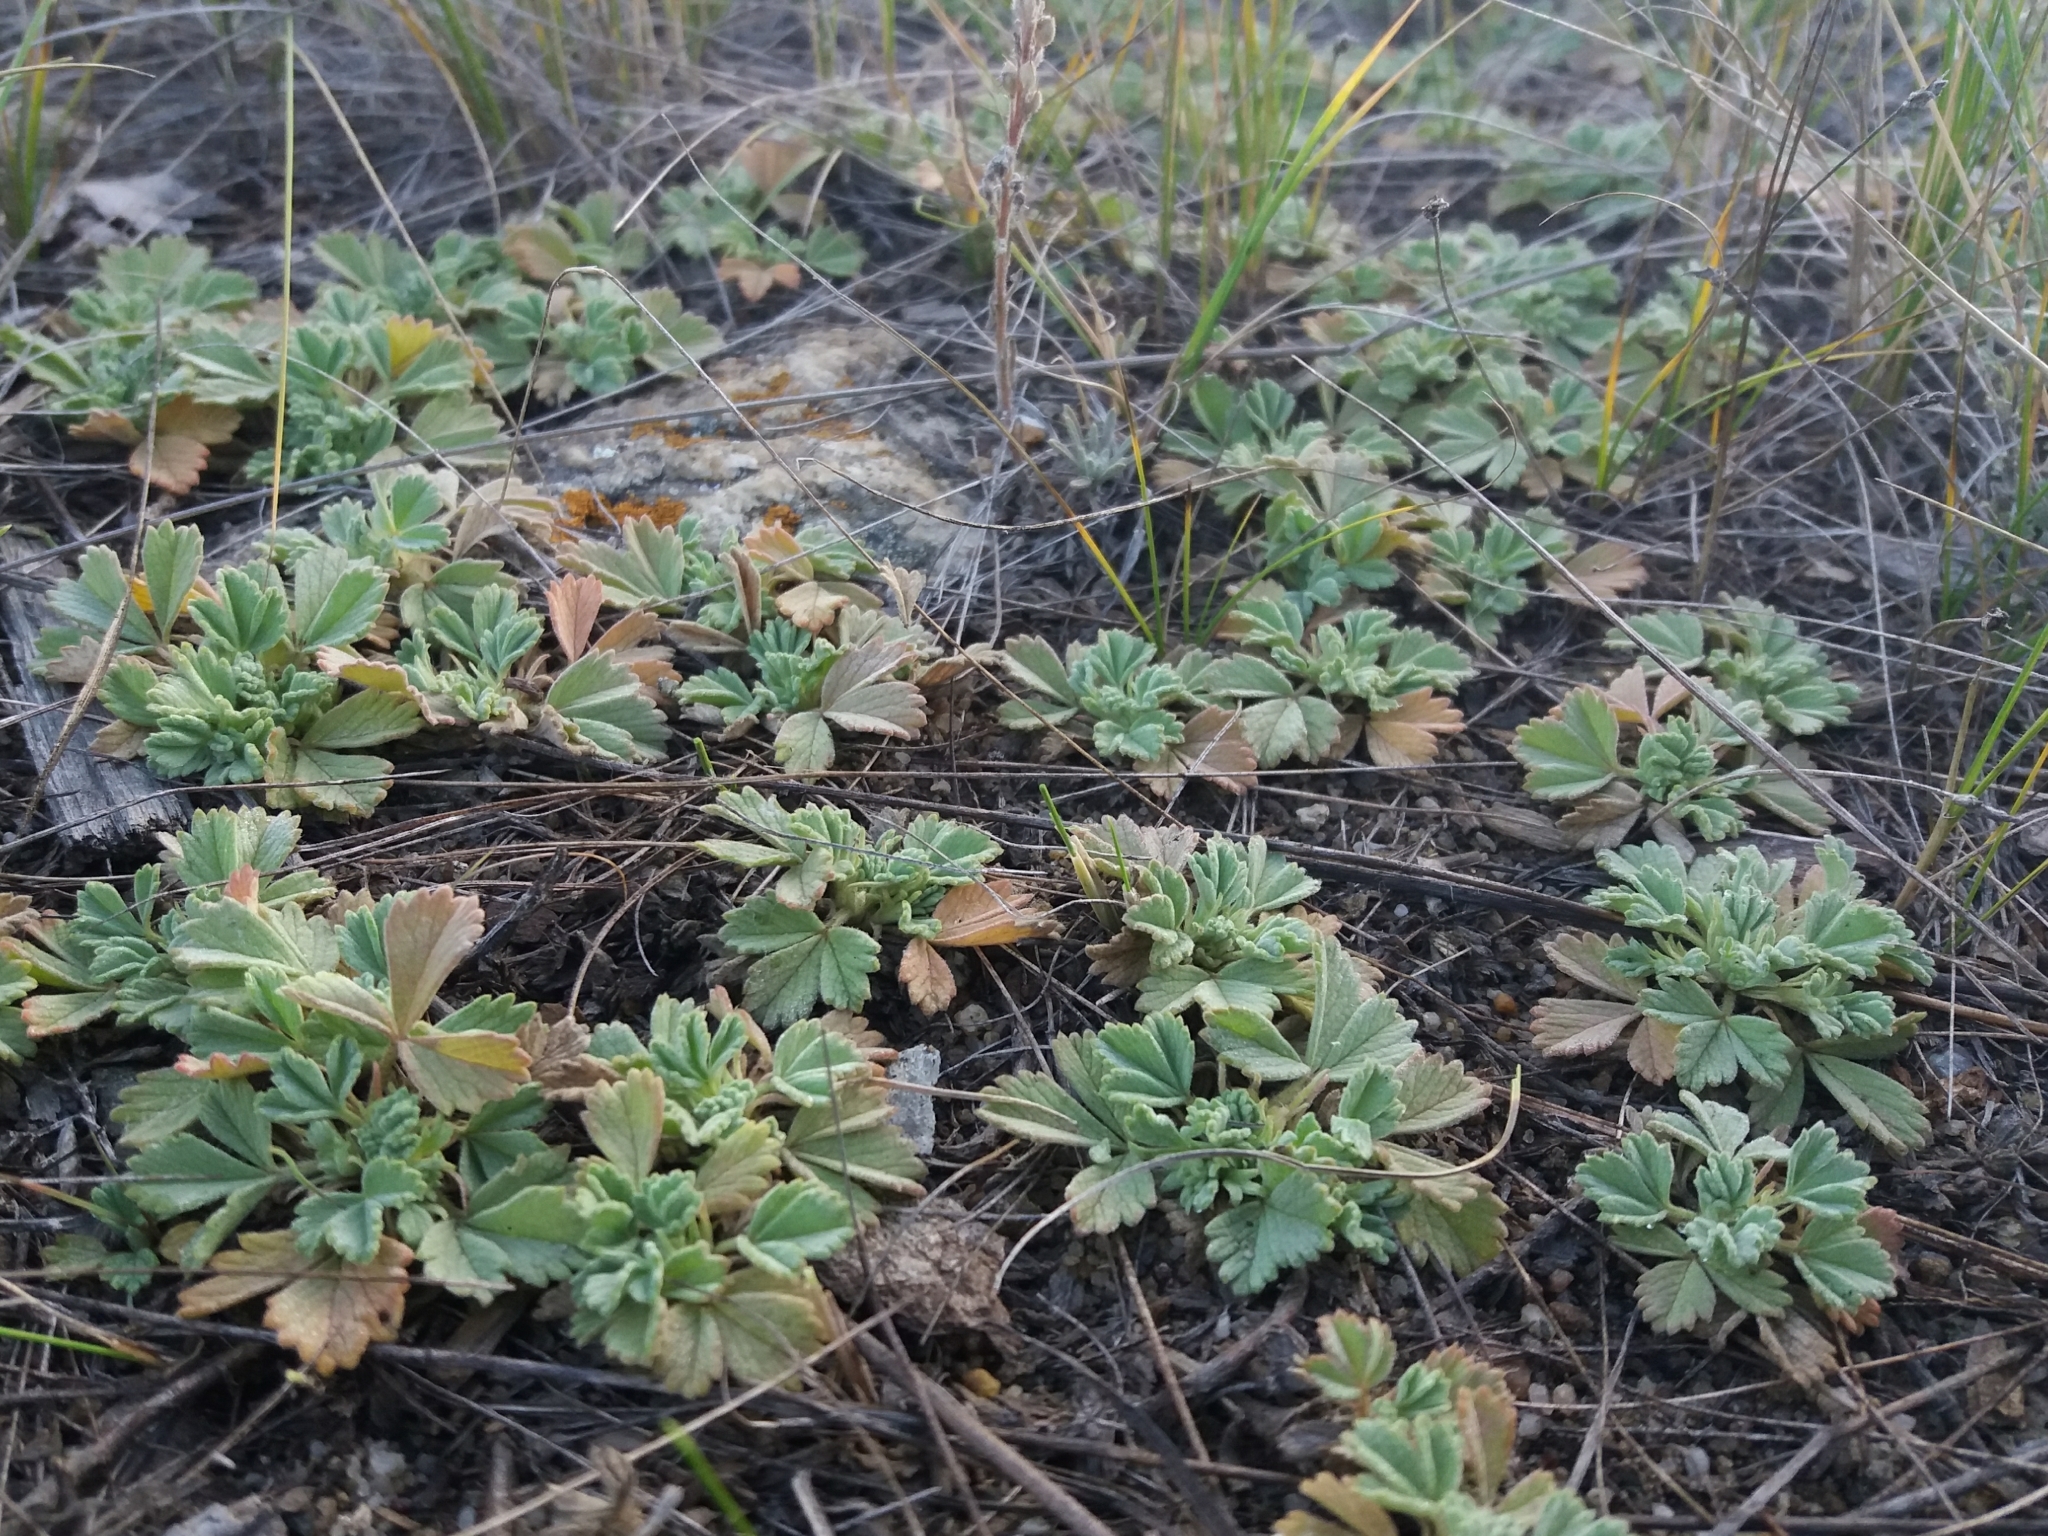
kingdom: Plantae
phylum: Tracheophyta
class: Magnoliopsida
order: Rosales
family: Rosaceae
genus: Potentilla
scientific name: Potentilla acaulis
